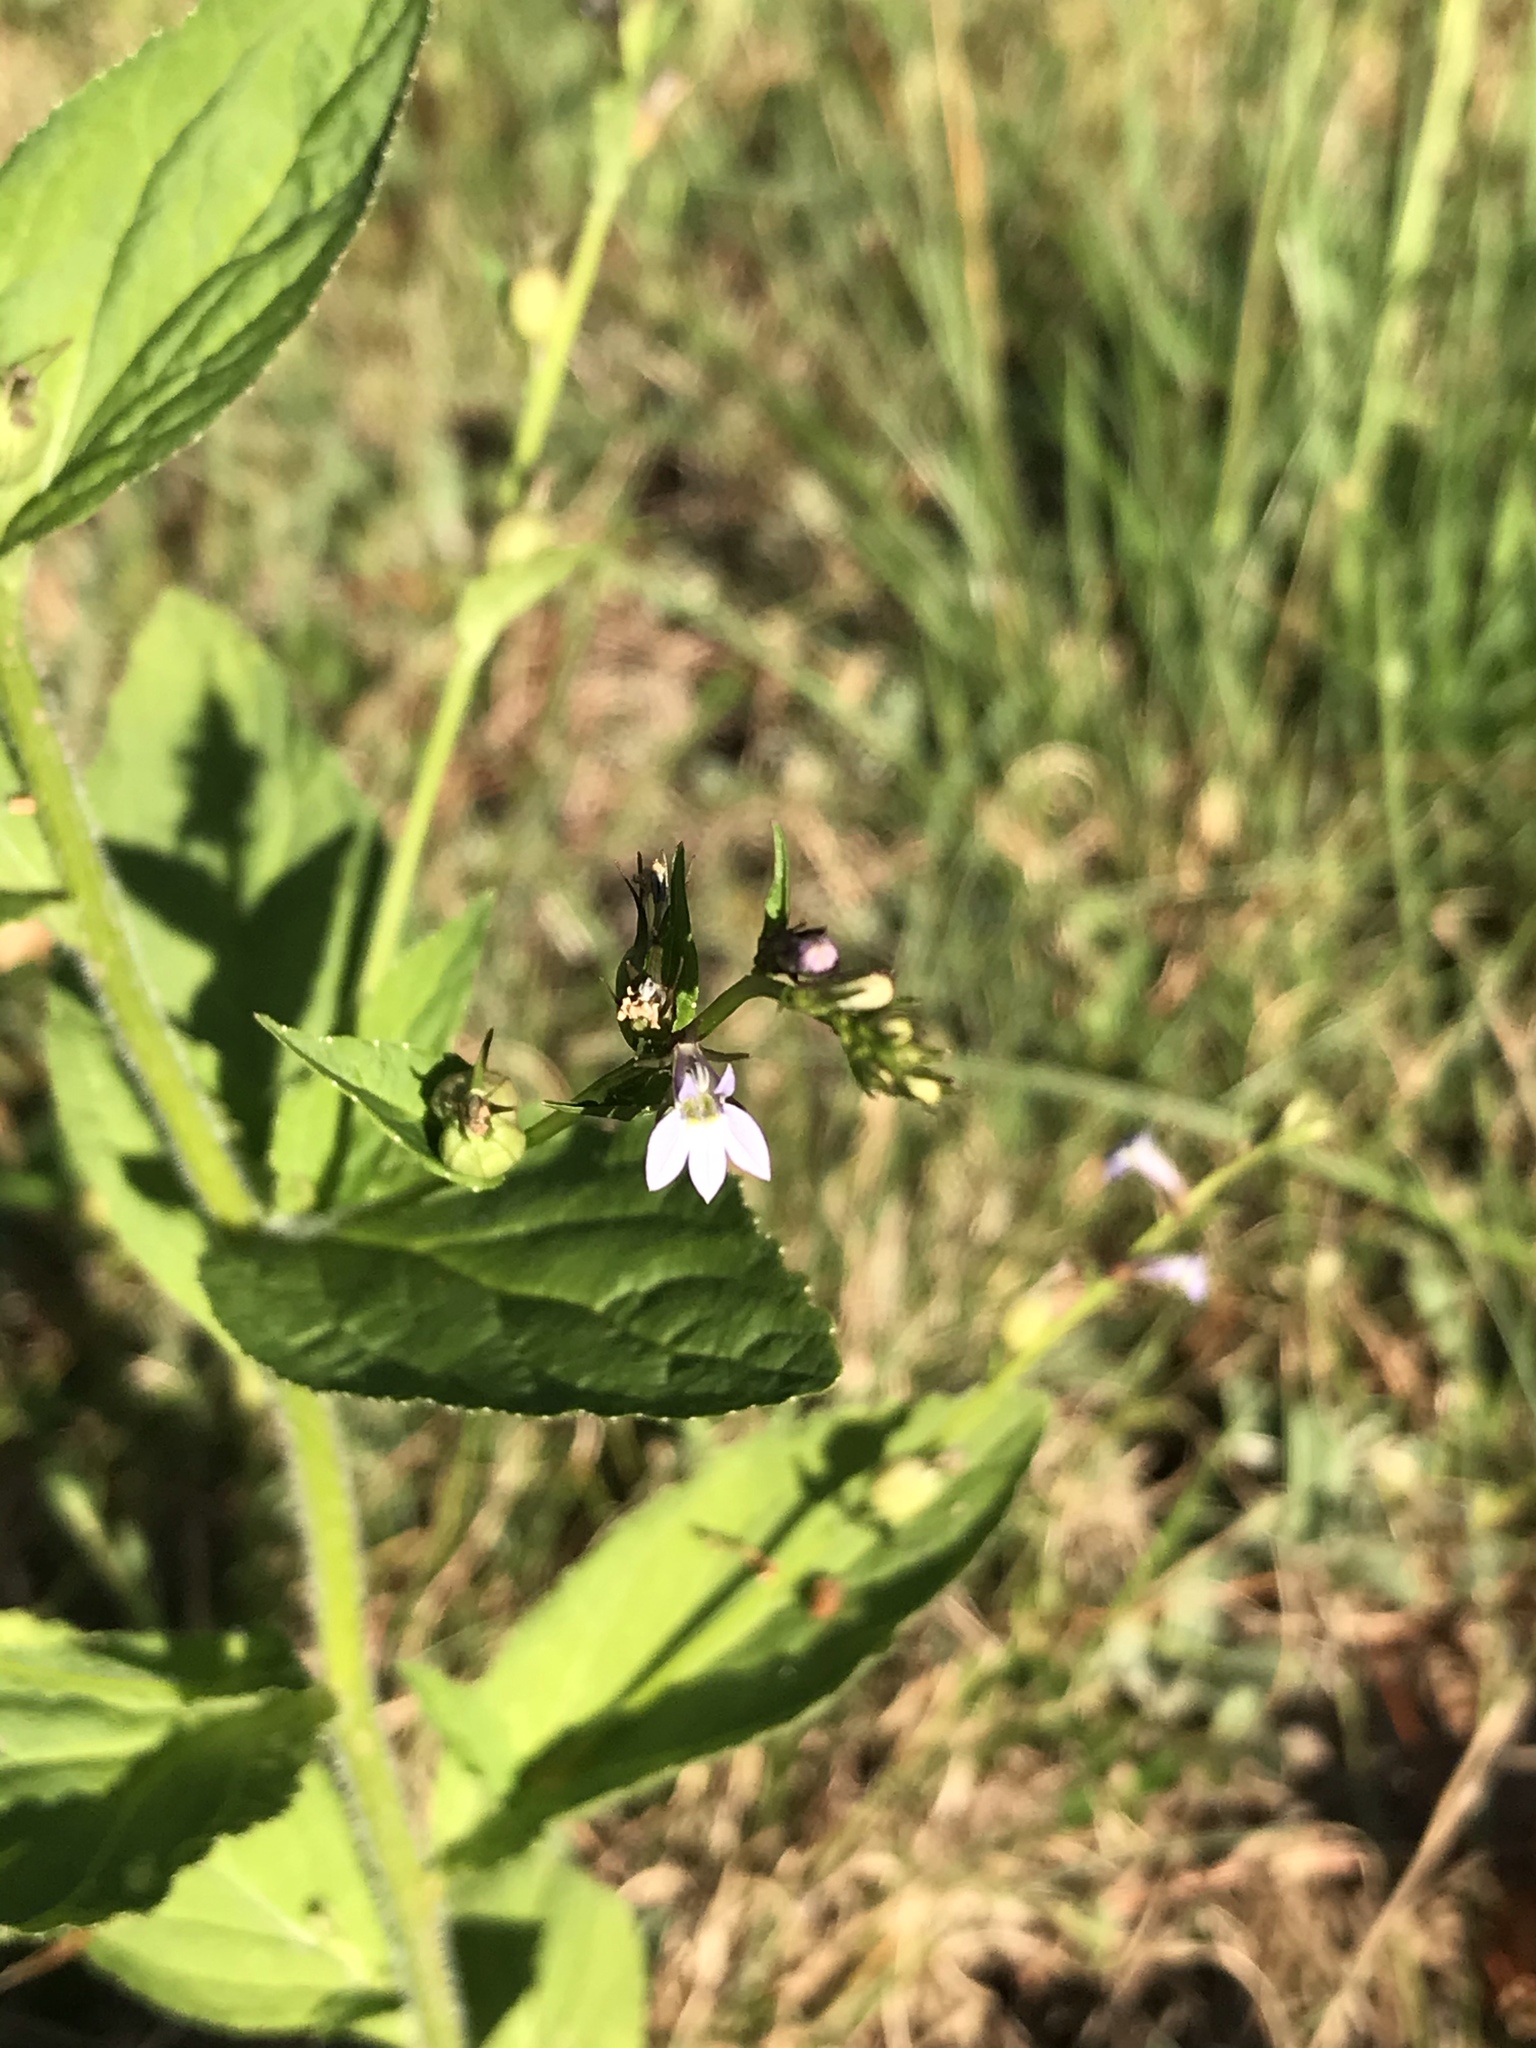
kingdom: Plantae
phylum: Tracheophyta
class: Magnoliopsida
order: Asterales
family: Campanulaceae
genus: Lobelia
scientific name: Lobelia inflata
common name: Indian tobacco
